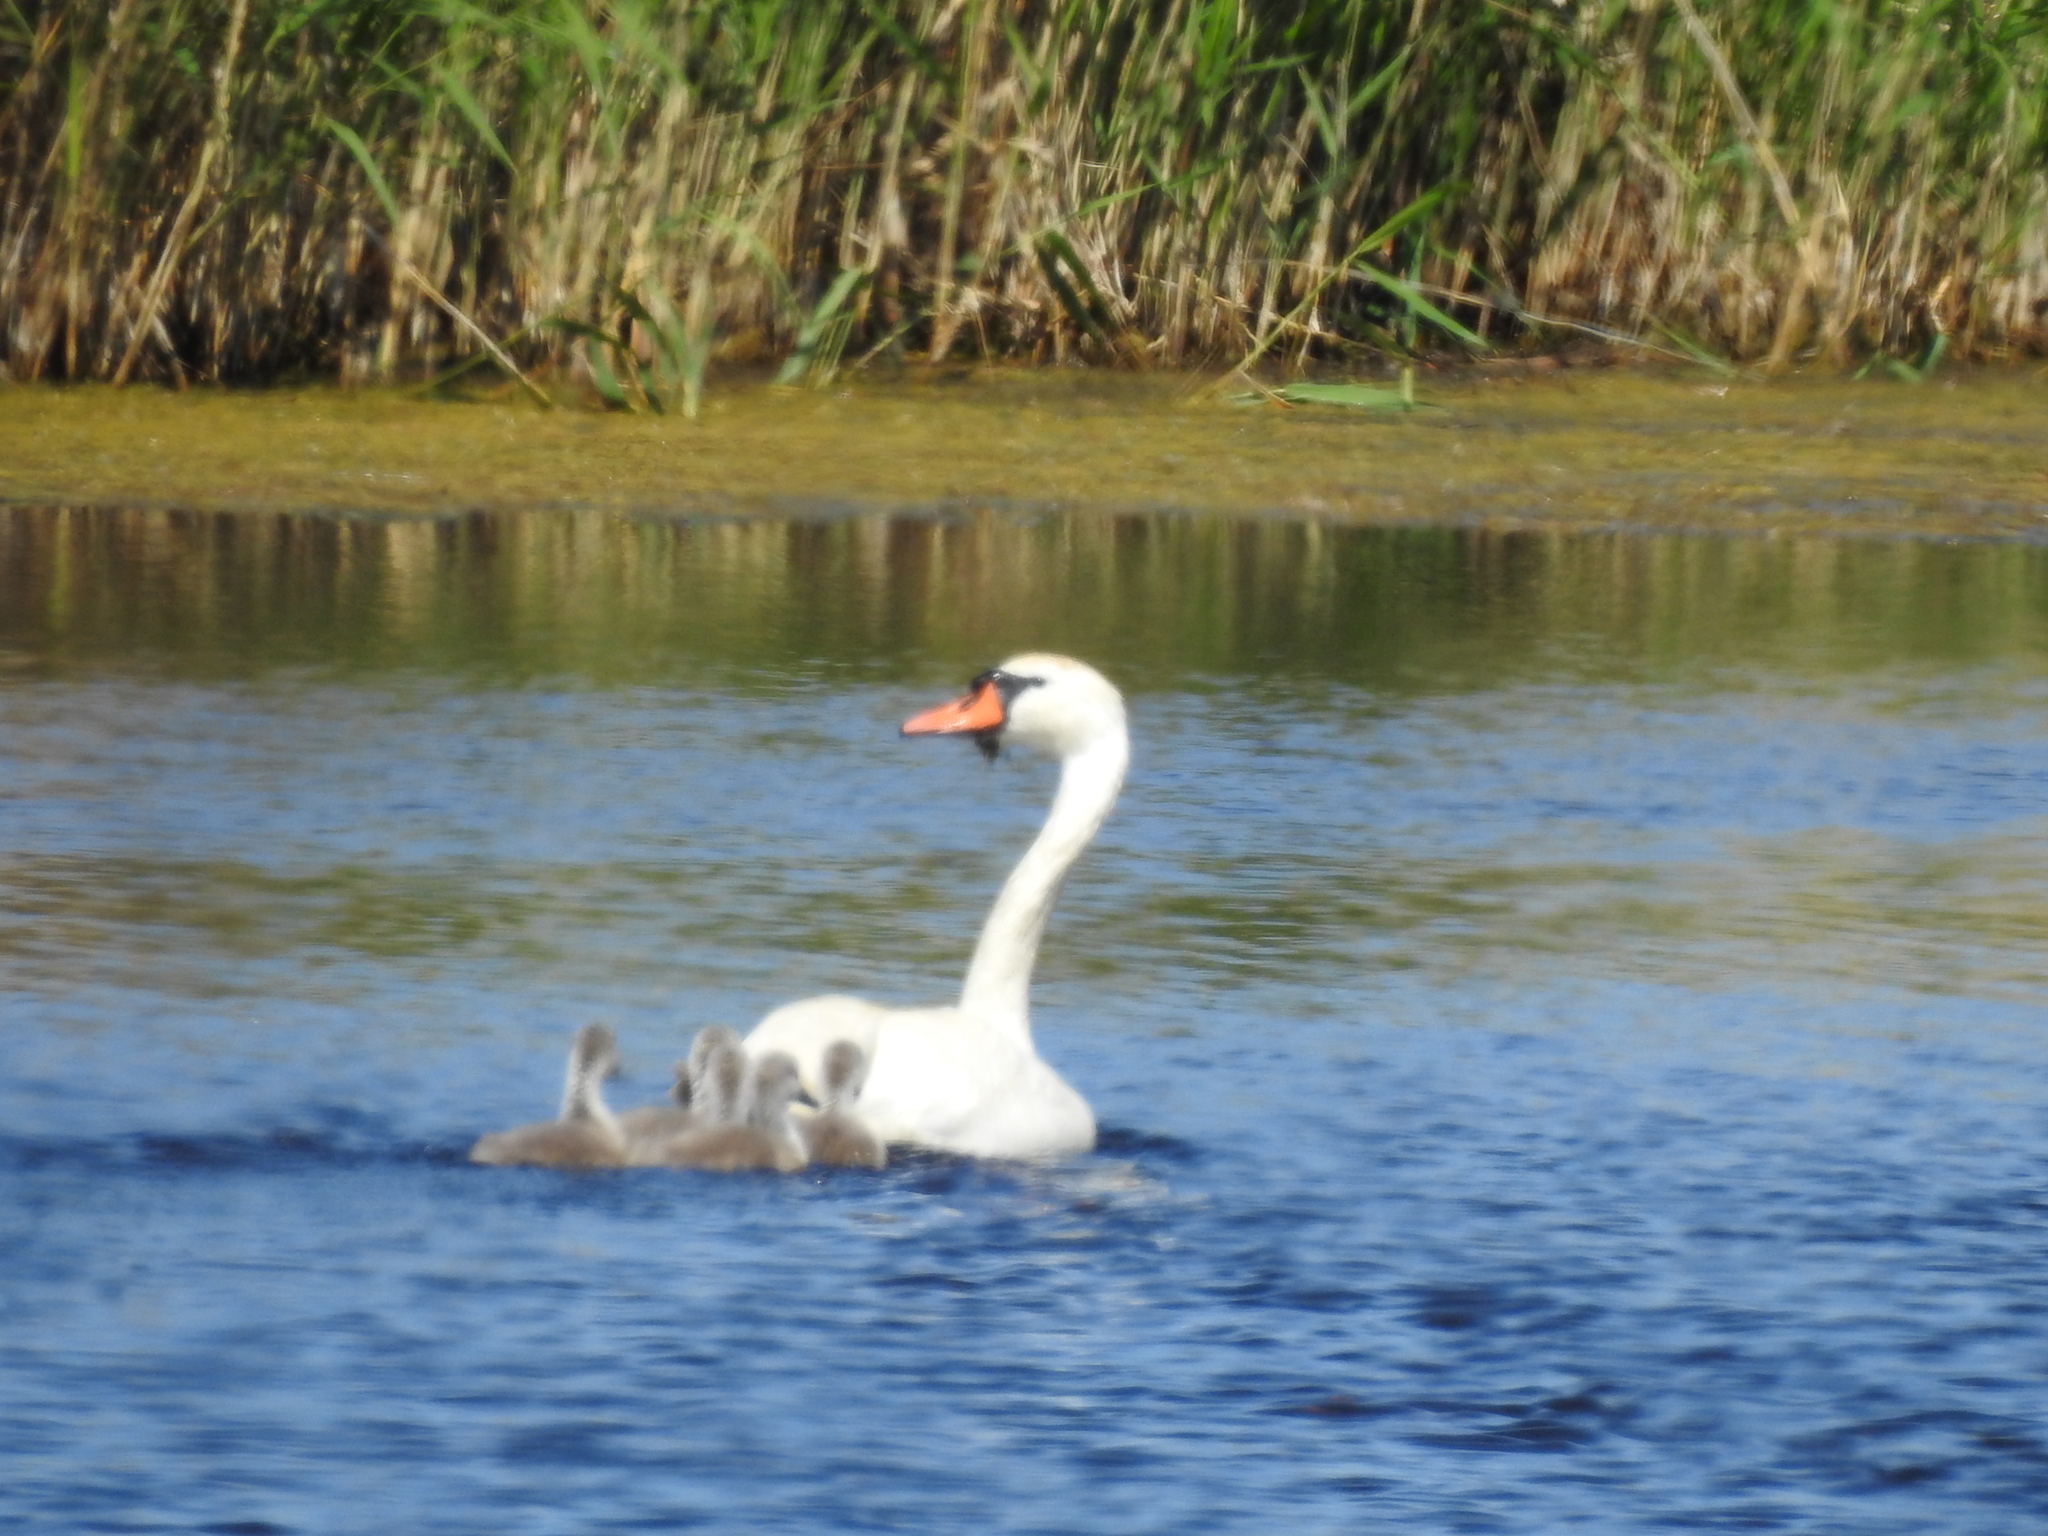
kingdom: Animalia
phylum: Chordata
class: Aves
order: Anseriformes
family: Anatidae
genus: Cygnus
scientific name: Cygnus olor
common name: Mute swan
